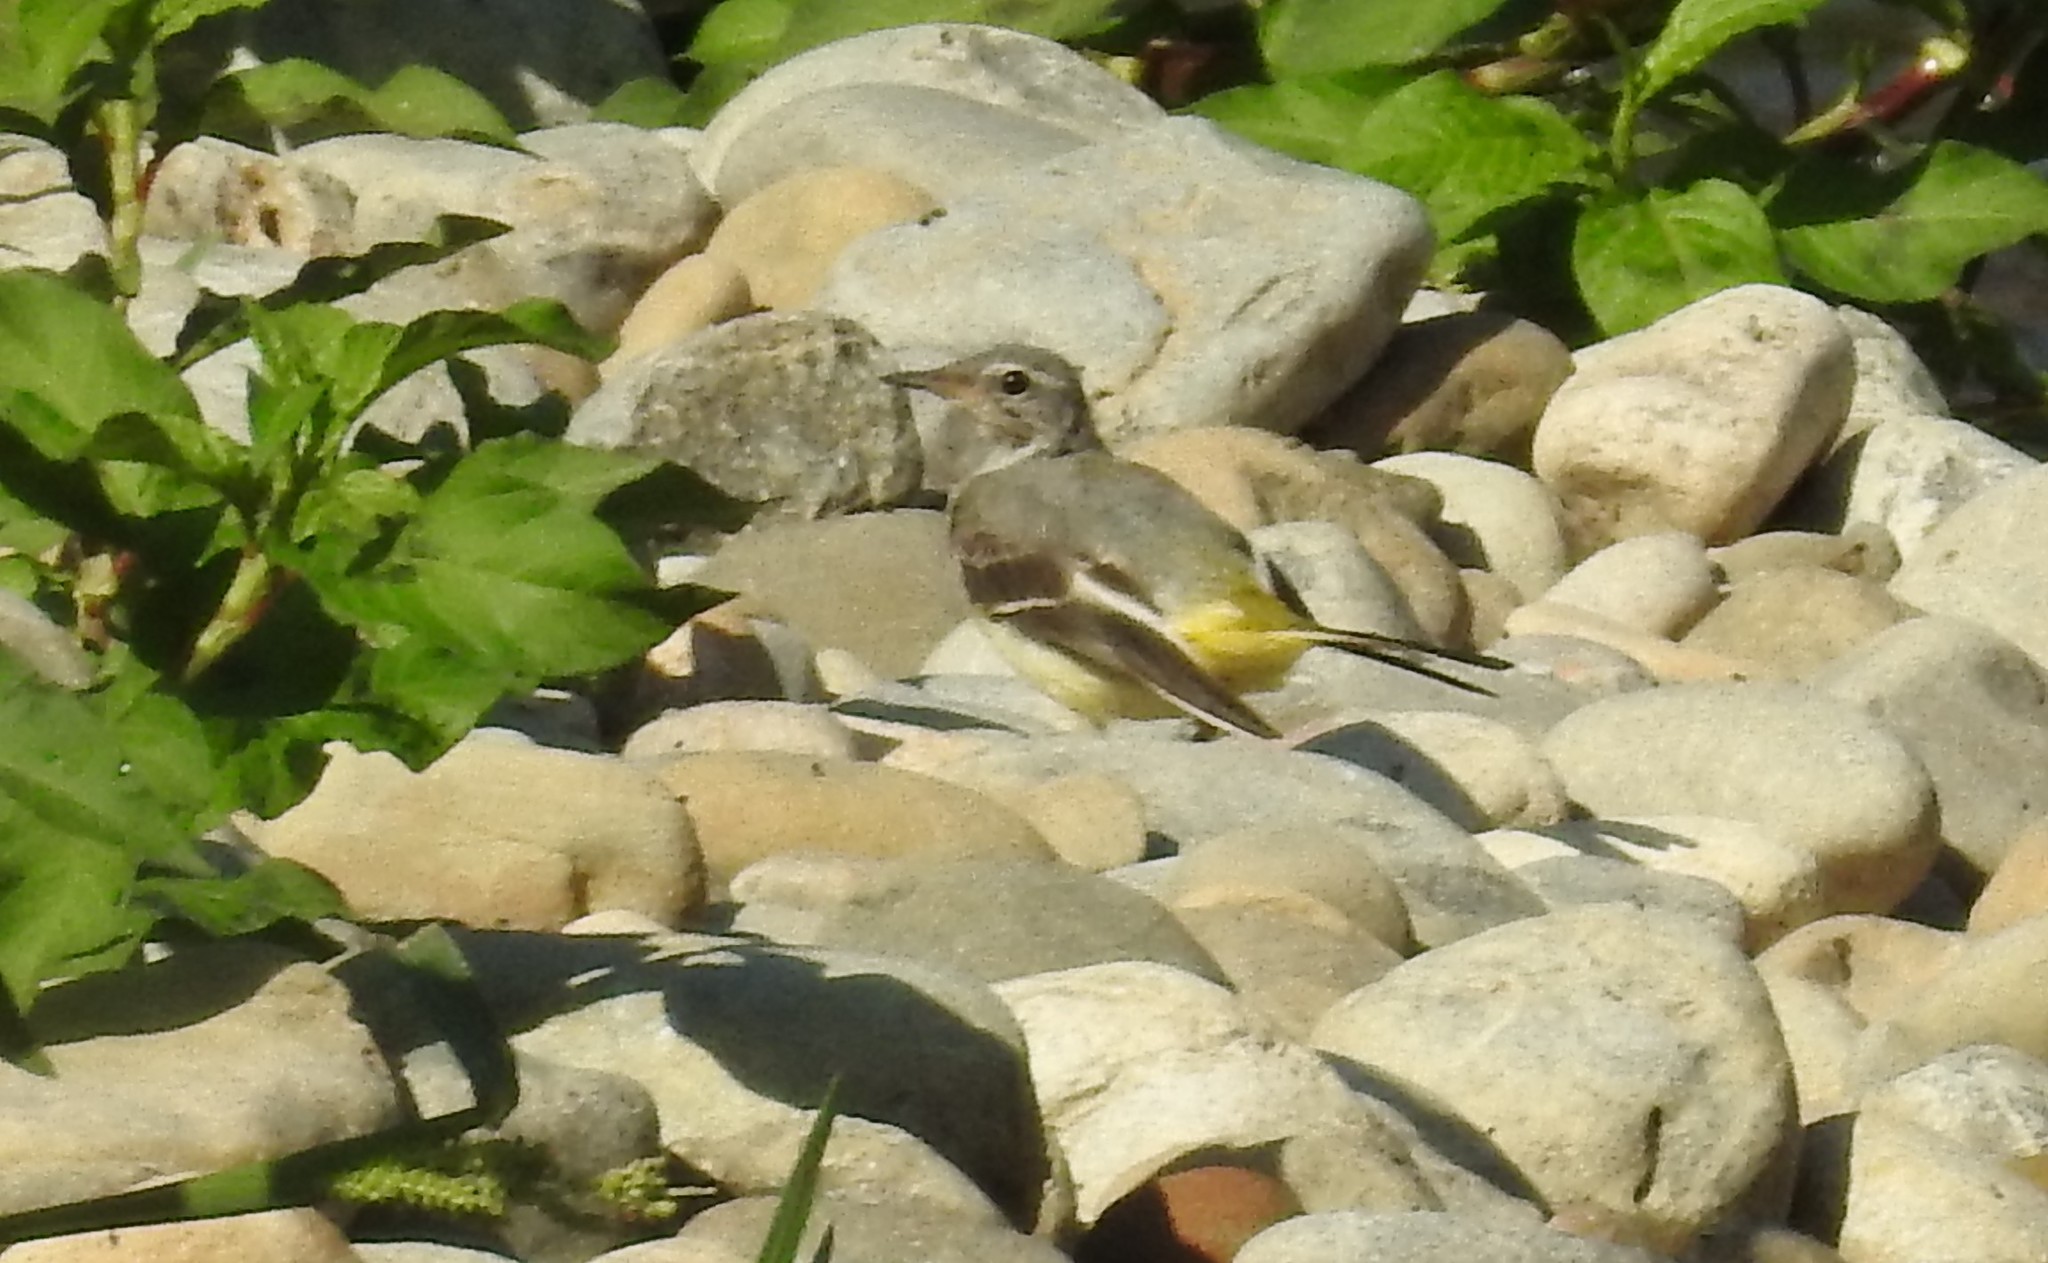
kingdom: Animalia
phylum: Chordata
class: Aves
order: Passeriformes
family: Motacillidae
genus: Motacilla
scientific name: Motacilla cinerea
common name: Grey wagtail
